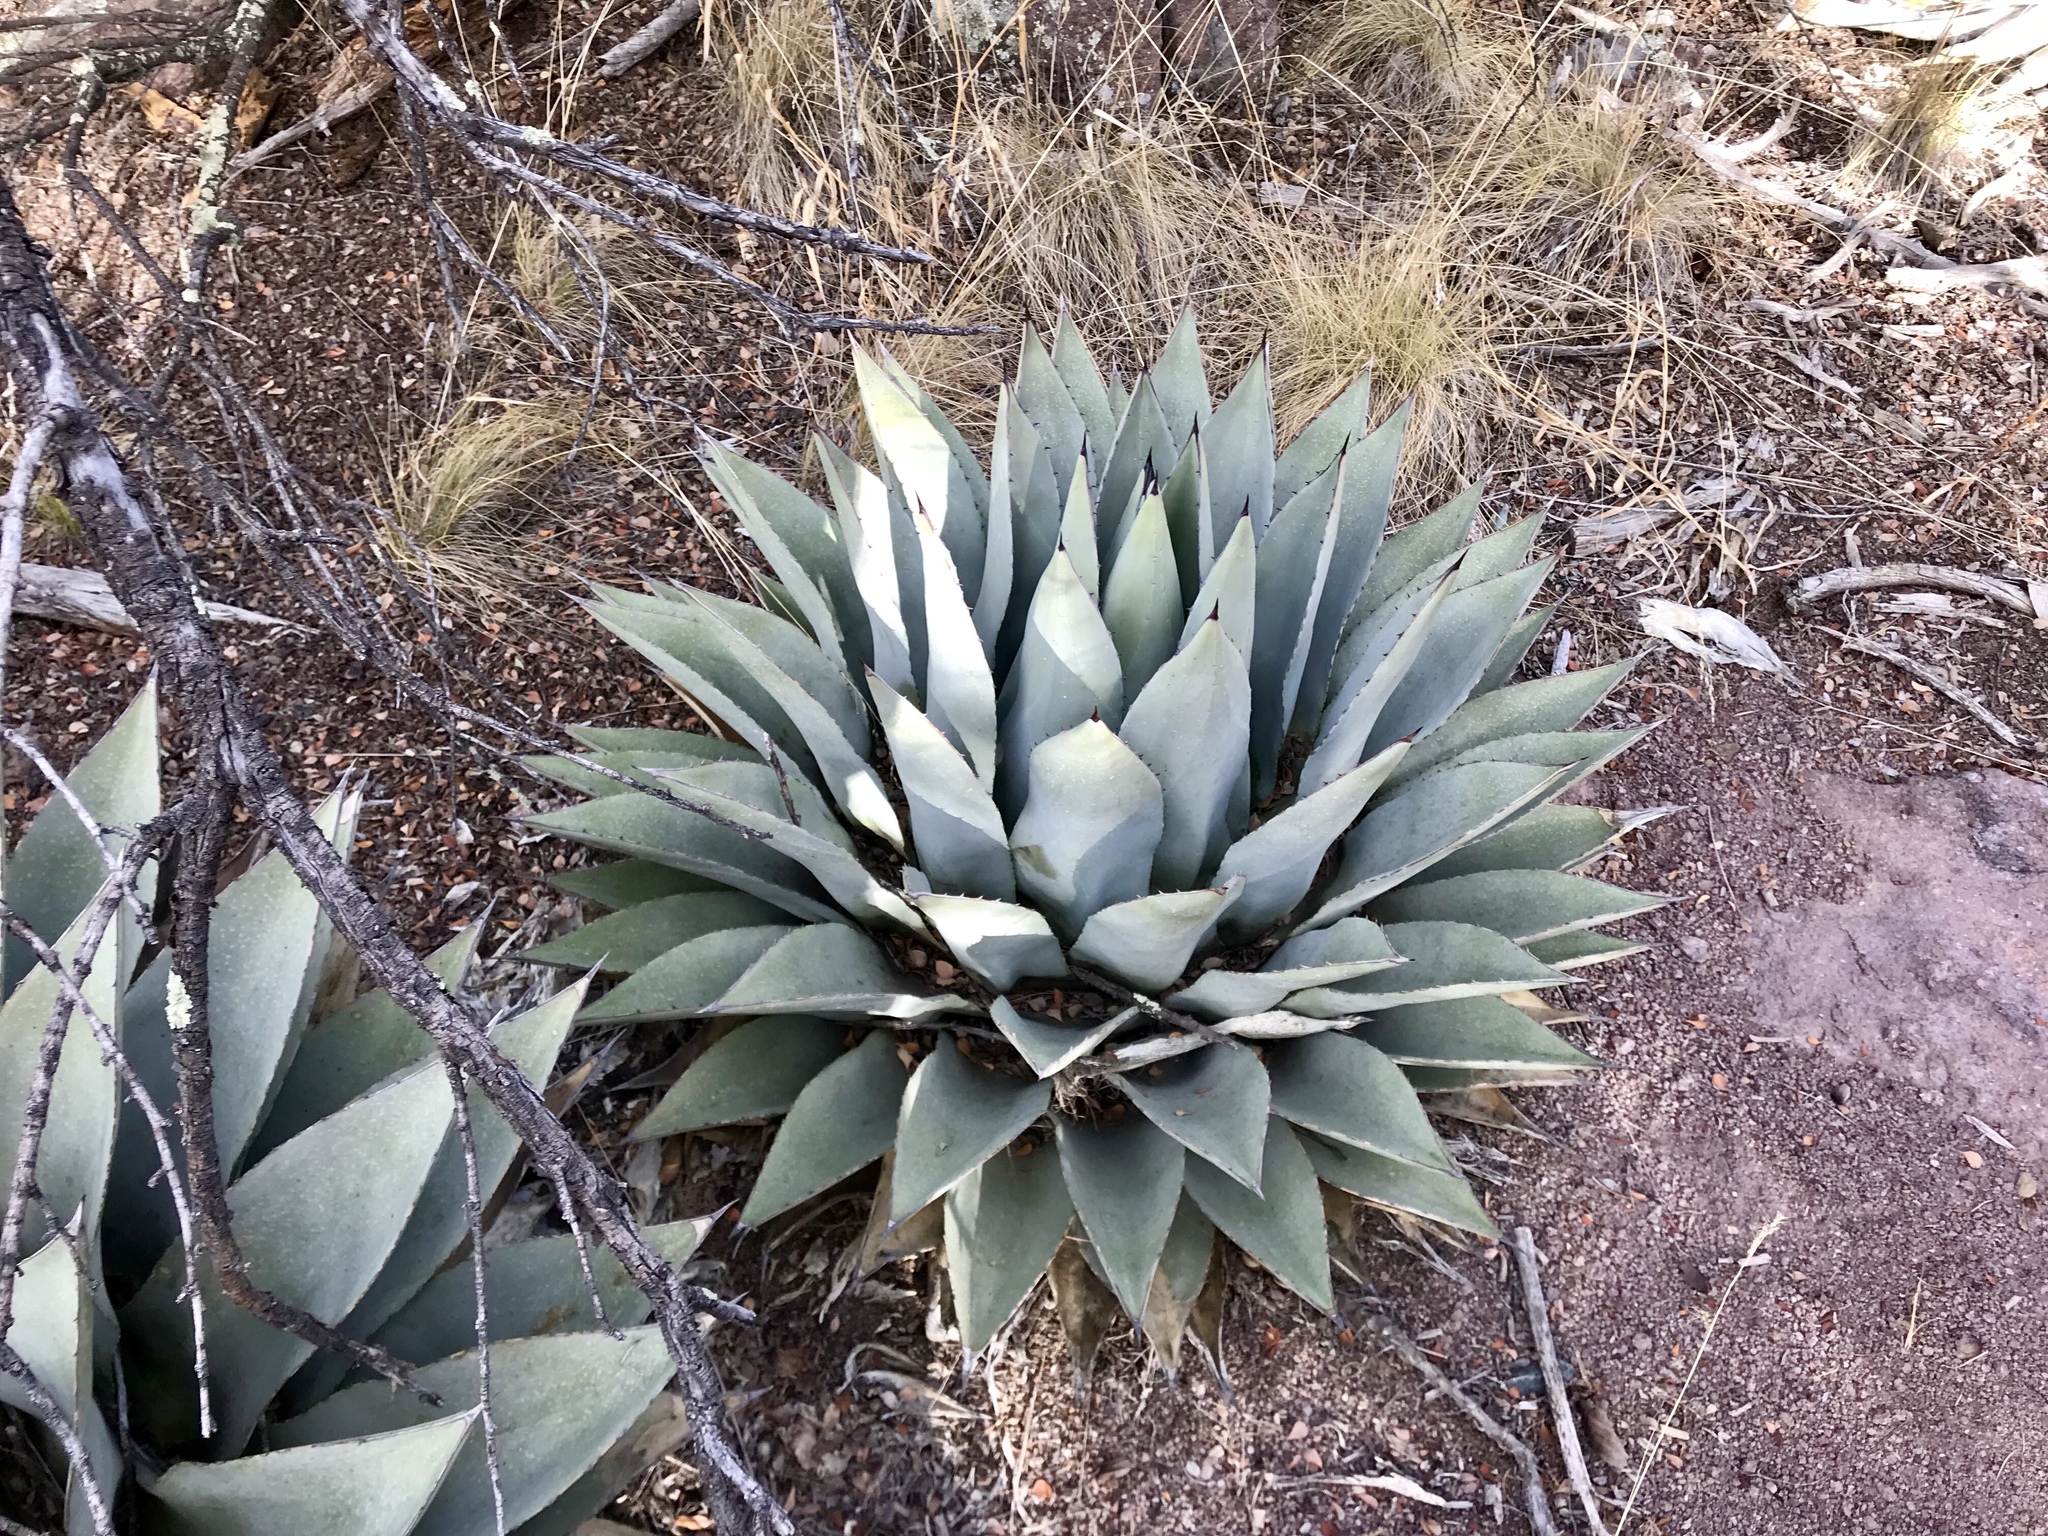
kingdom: Plantae
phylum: Tracheophyta
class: Liliopsida
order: Asparagales
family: Asparagaceae
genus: Agave
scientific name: Agave parryi
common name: Parry's agave
